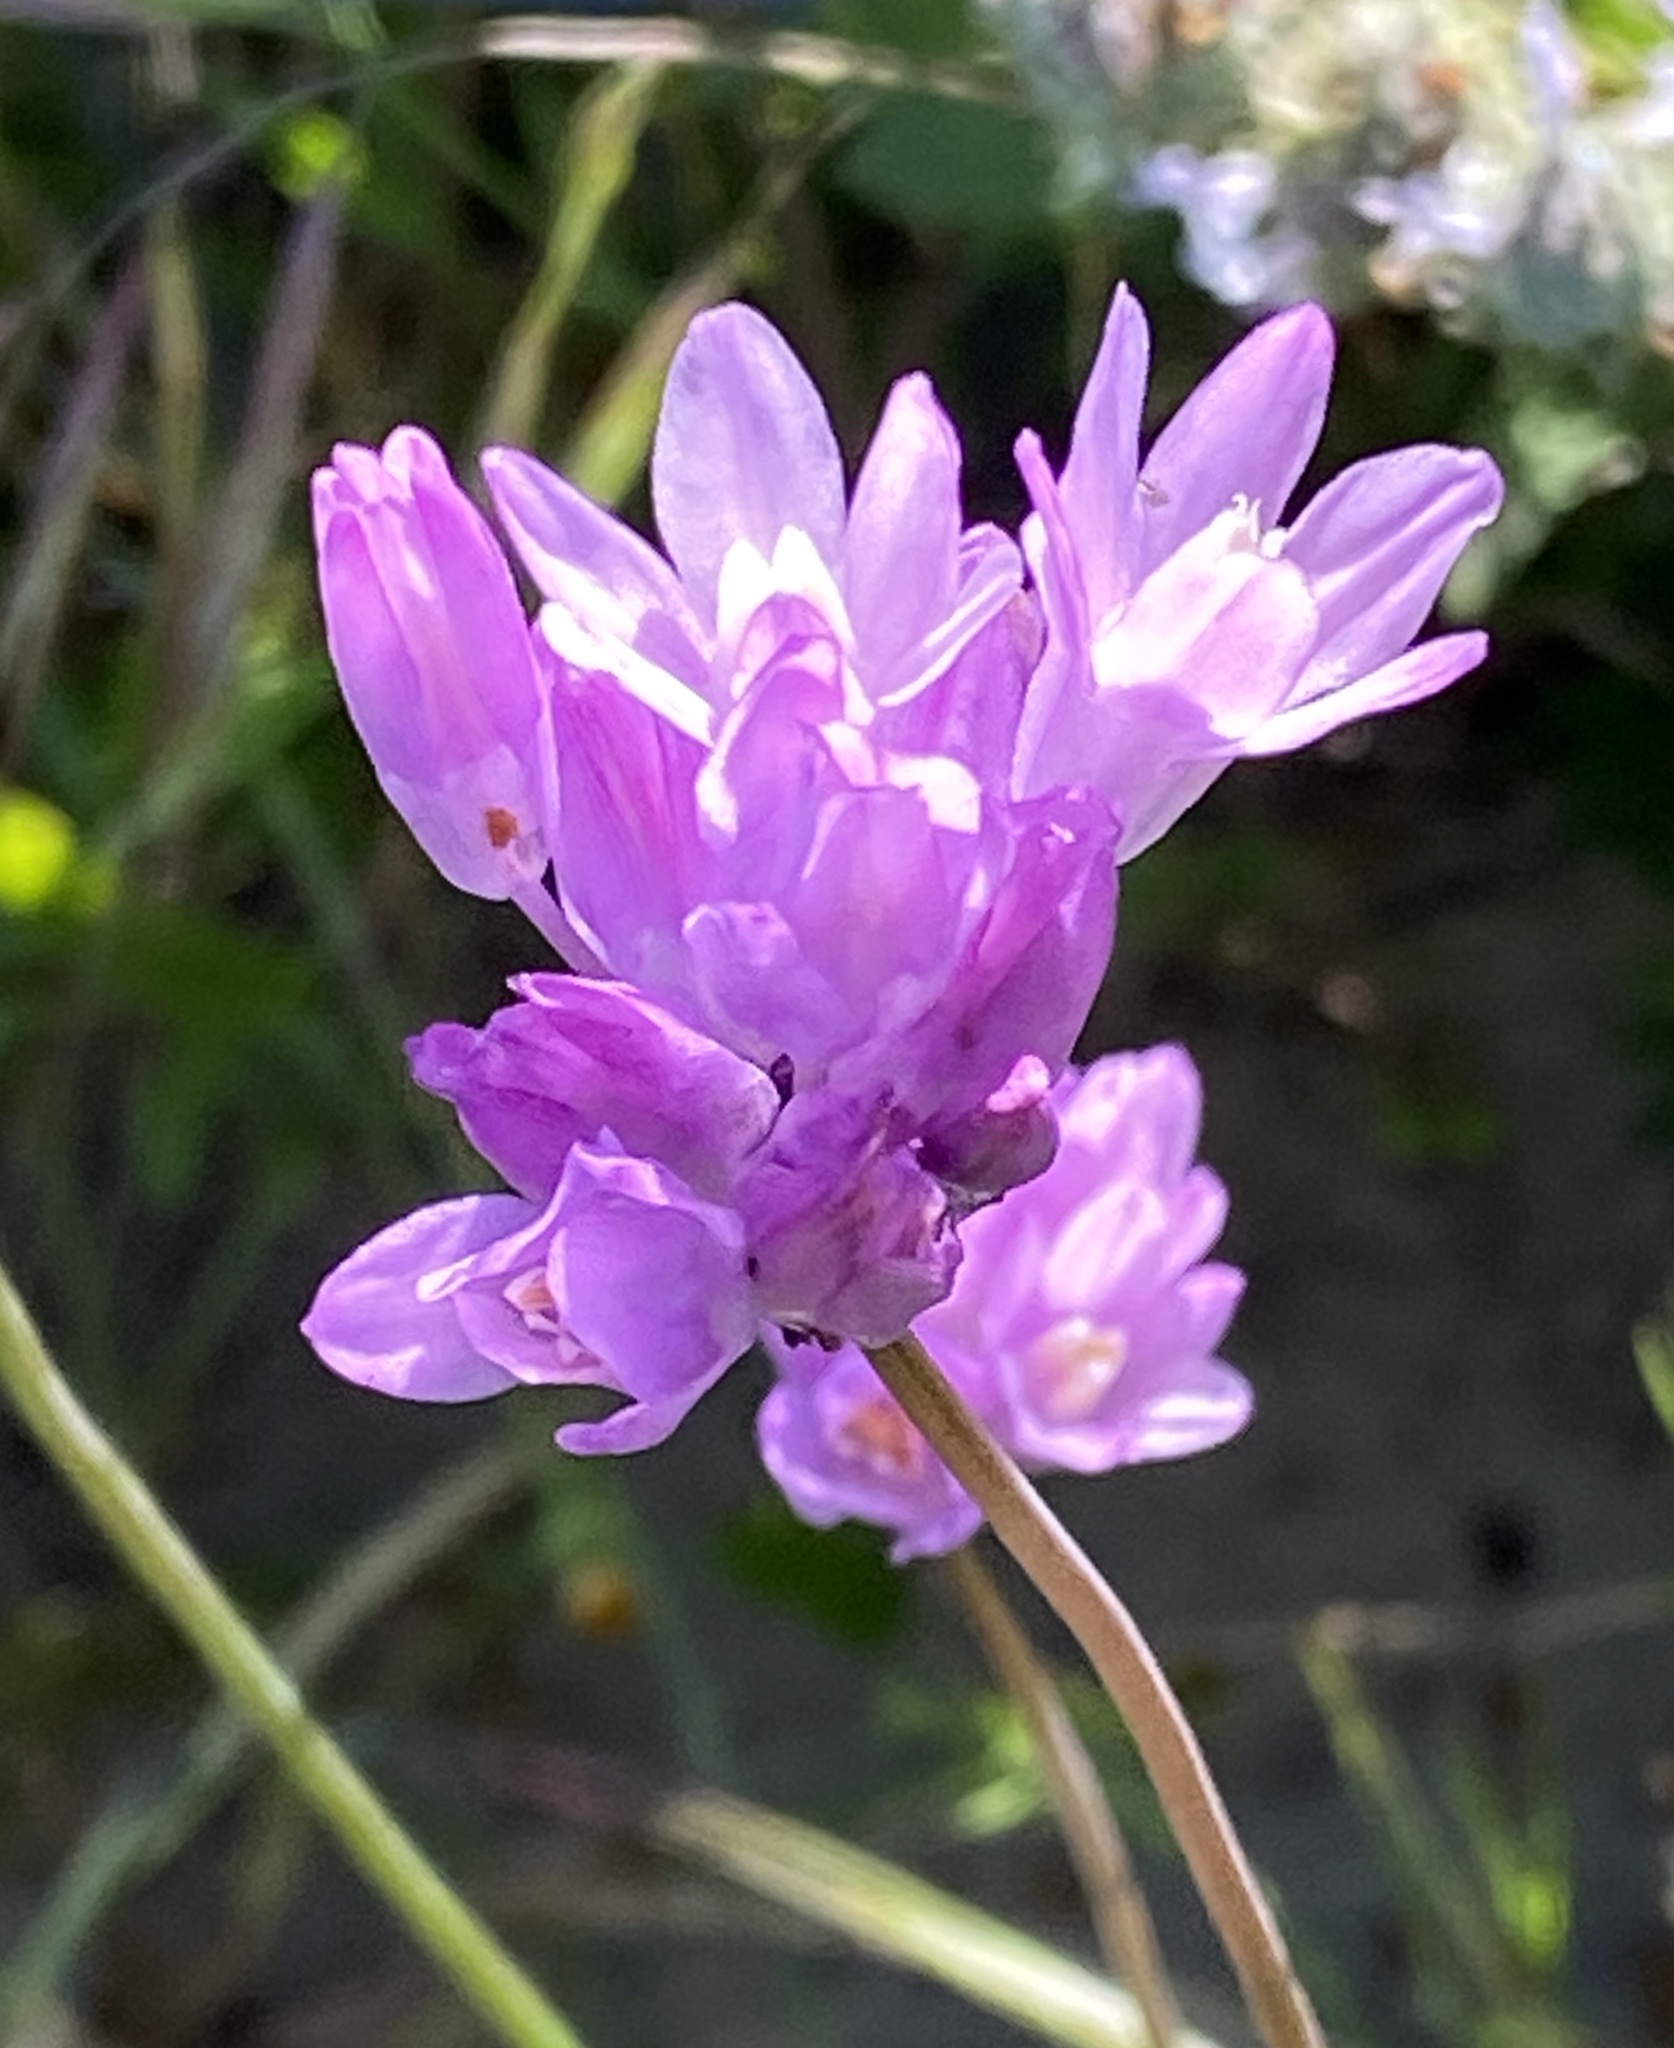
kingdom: Plantae
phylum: Tracheophyta
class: Liliopsida
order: Asparagales
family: Asparagaceae
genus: Dipterostemon
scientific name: Dipterostemon capitatus
